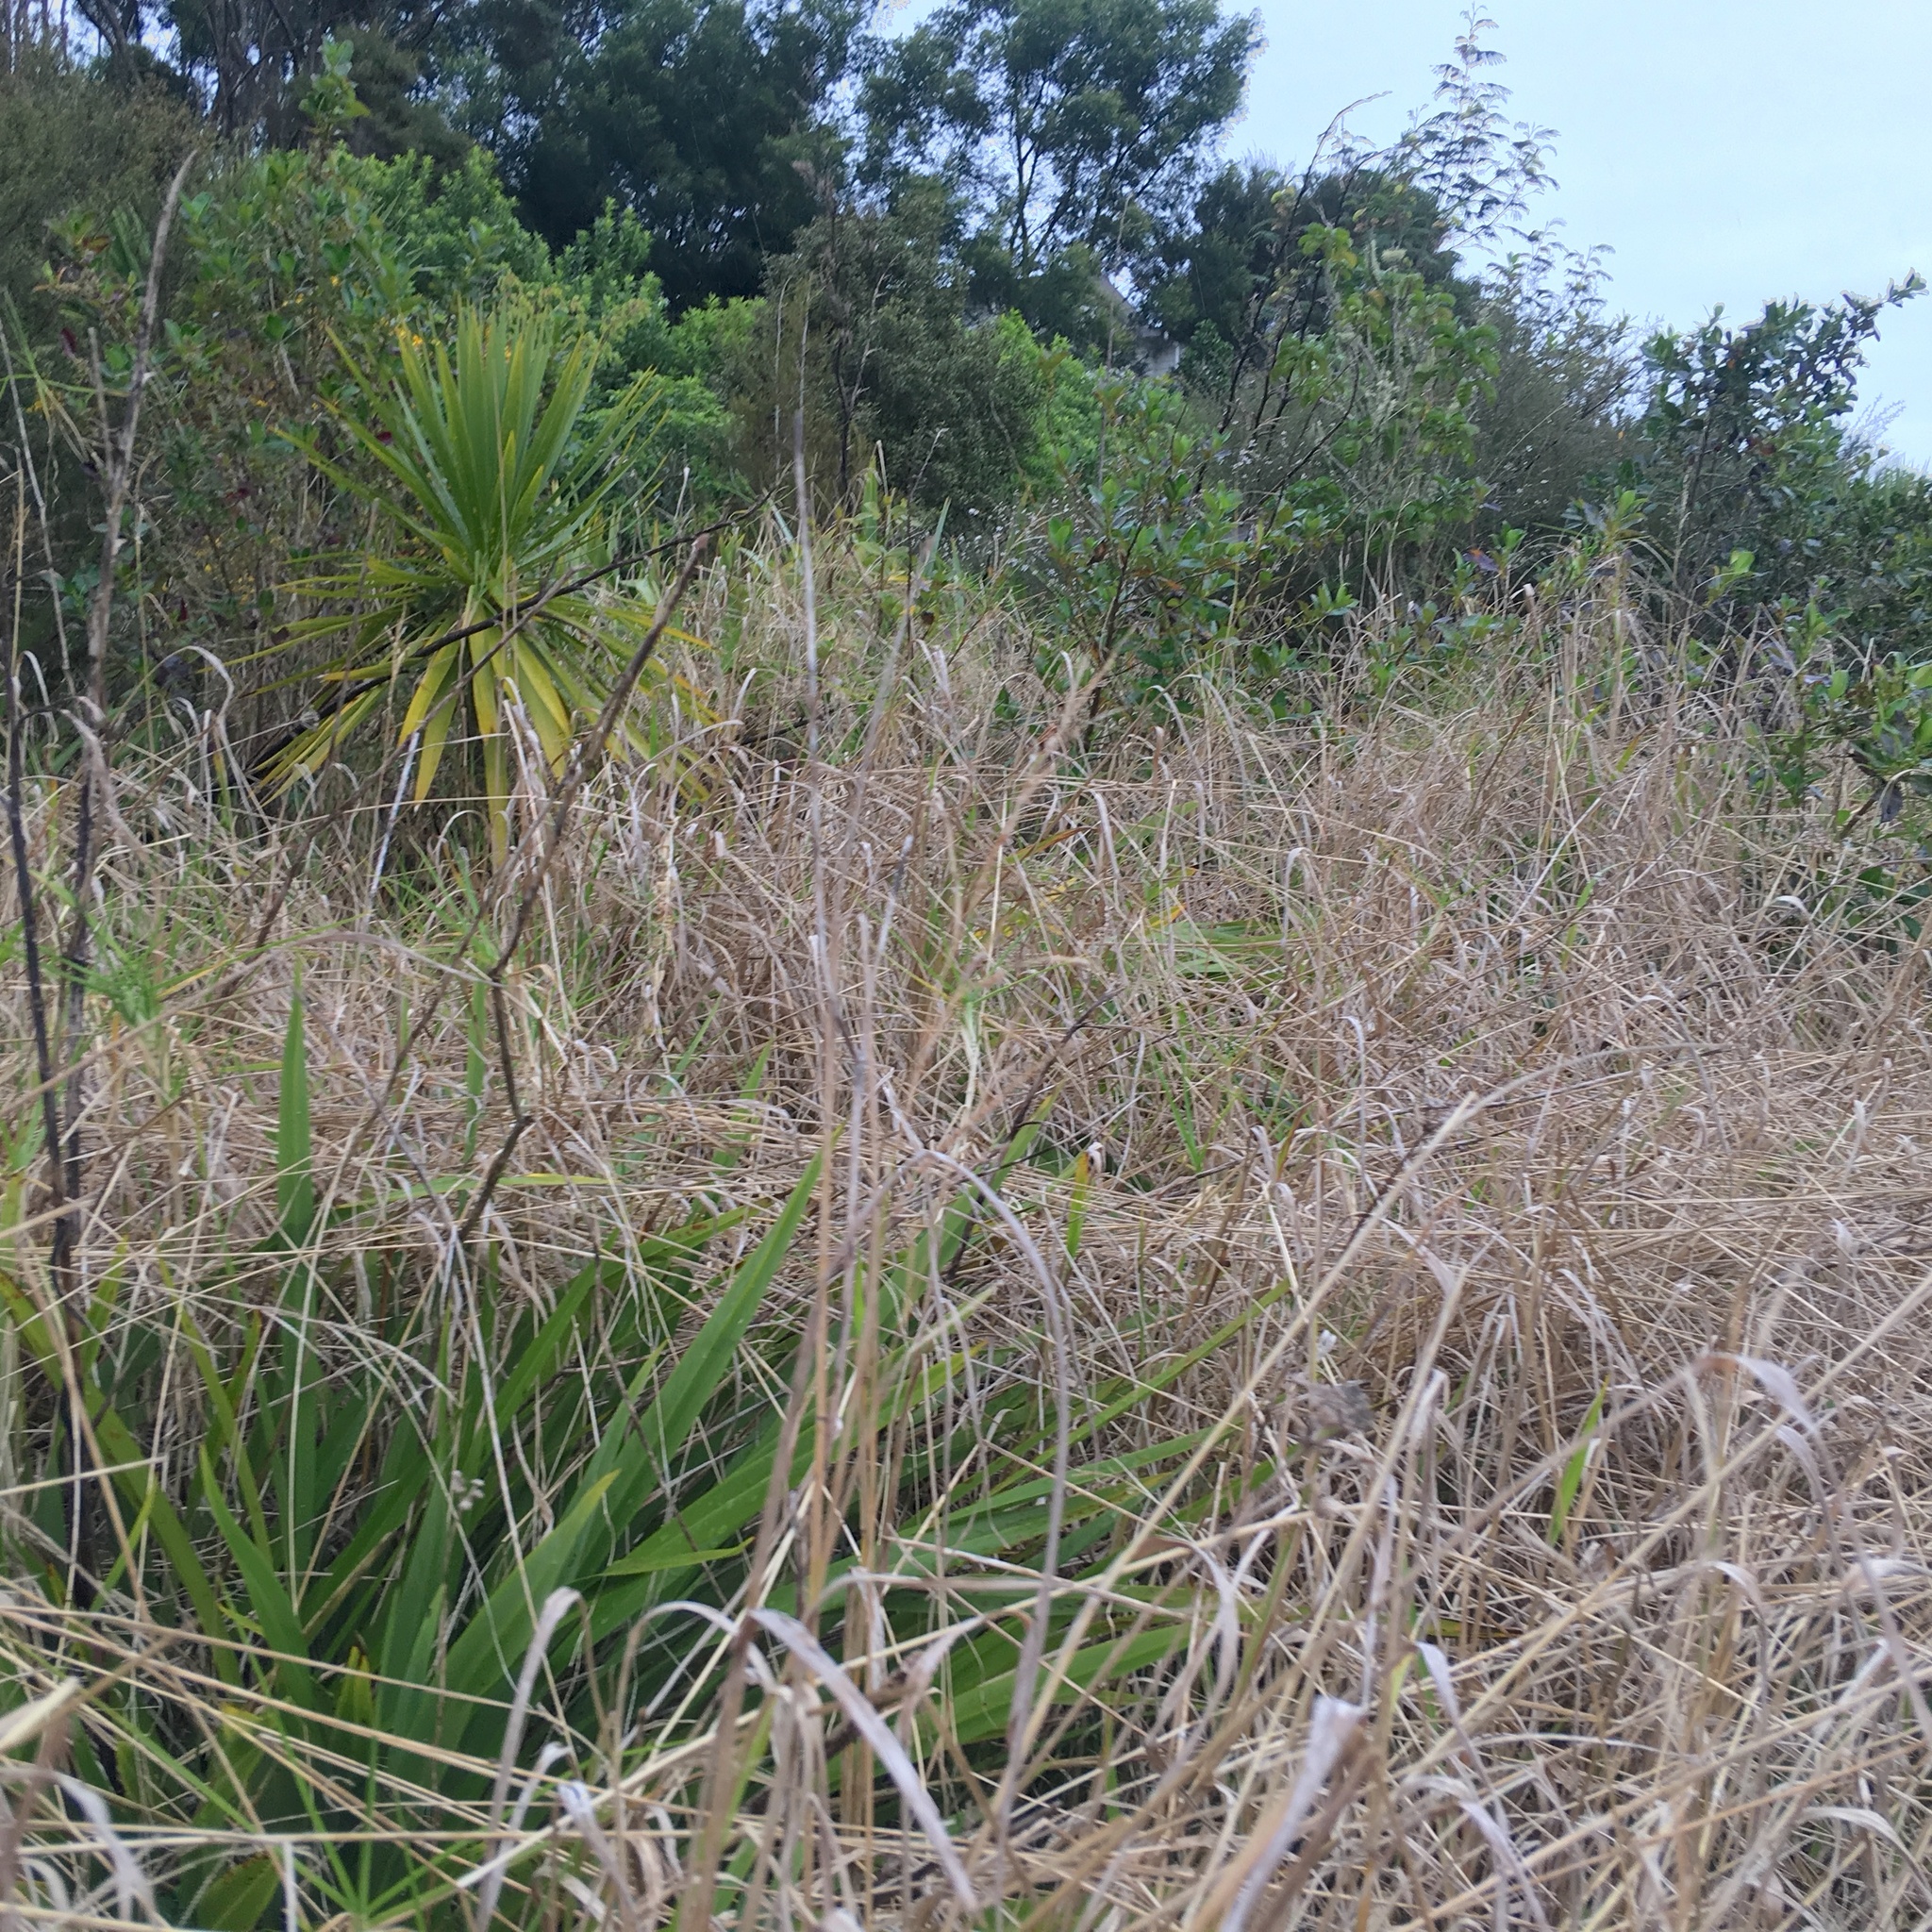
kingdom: Plantae
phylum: Tracheophyta
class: Liliopsida
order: Asparagales
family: Asparagaceae
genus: Cordyline
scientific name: Cordyline australis
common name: Cabbage-palm
